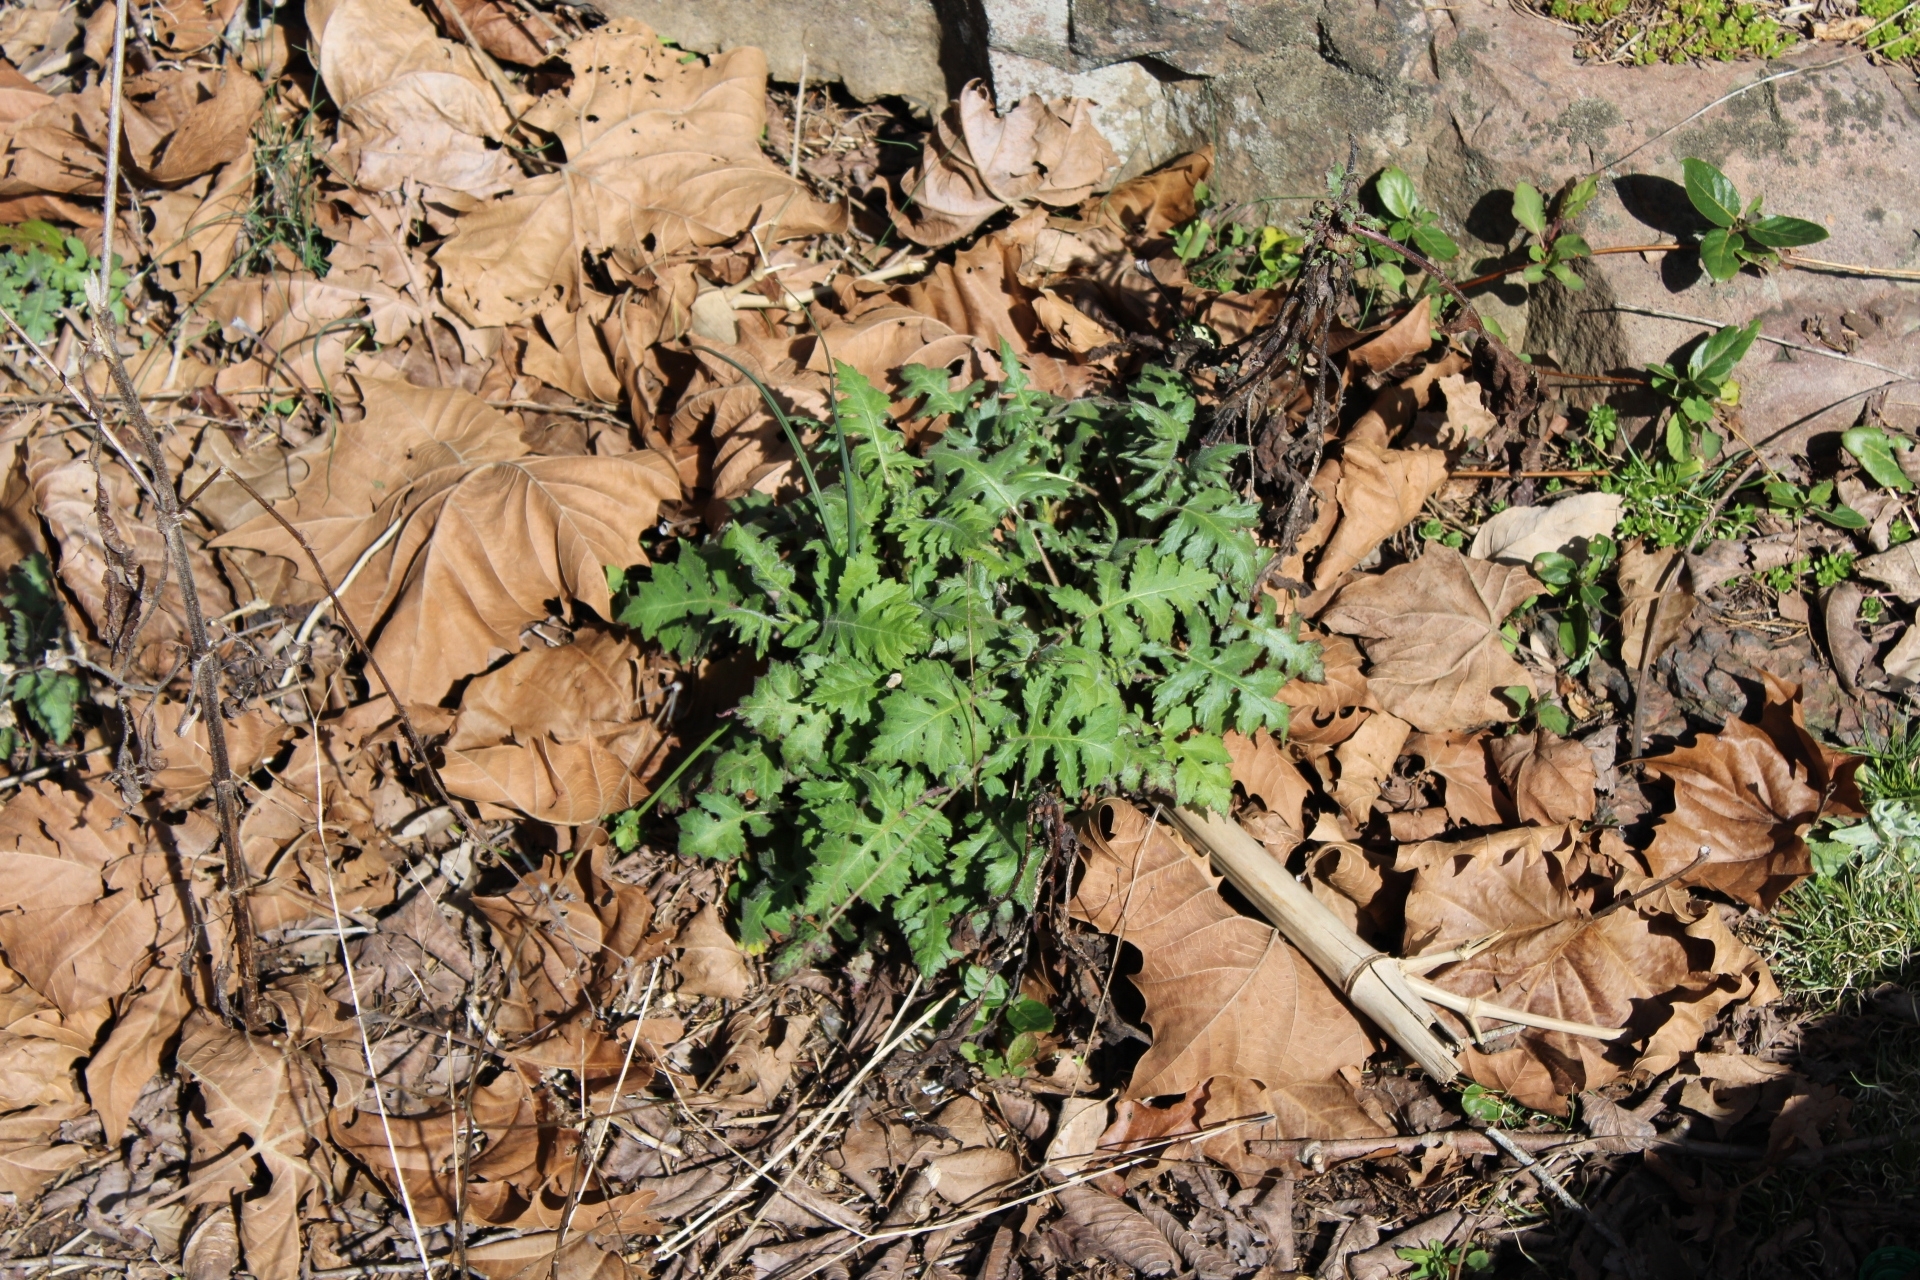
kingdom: Plantae
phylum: Tracheophyta
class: Magnoliopsida
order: Asterales
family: Asteraceae
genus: Polymnia
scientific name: Polymnia canadensis
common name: Pale-flowered leafcup
